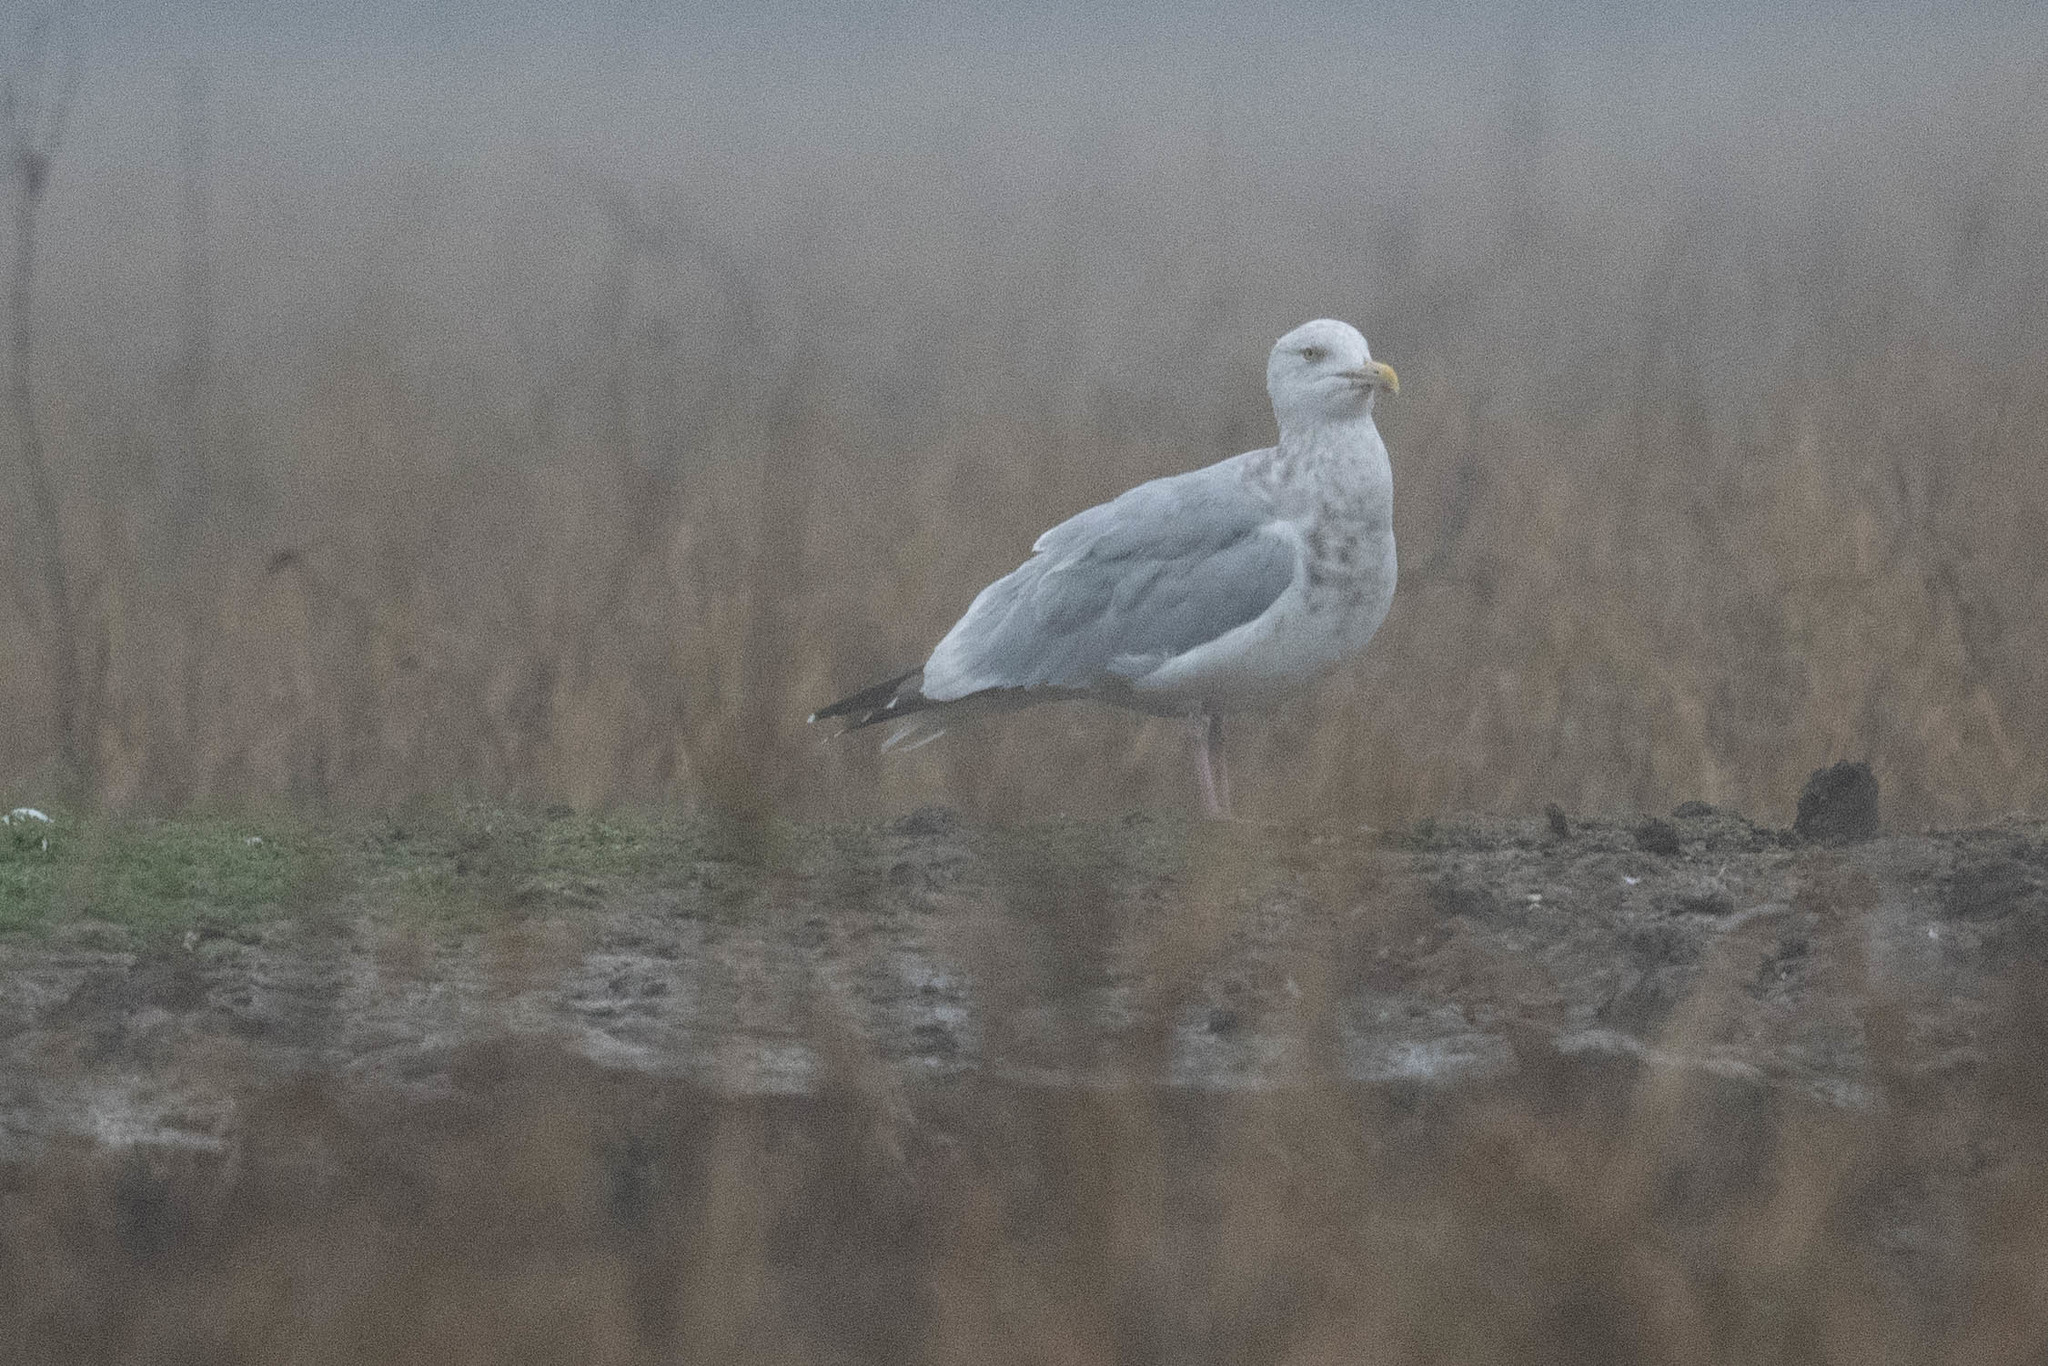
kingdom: Animalia
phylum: Chordata
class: Aves
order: Charadriiformes
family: Laridae
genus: Larus
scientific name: Larus argentatus
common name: Herring gull
